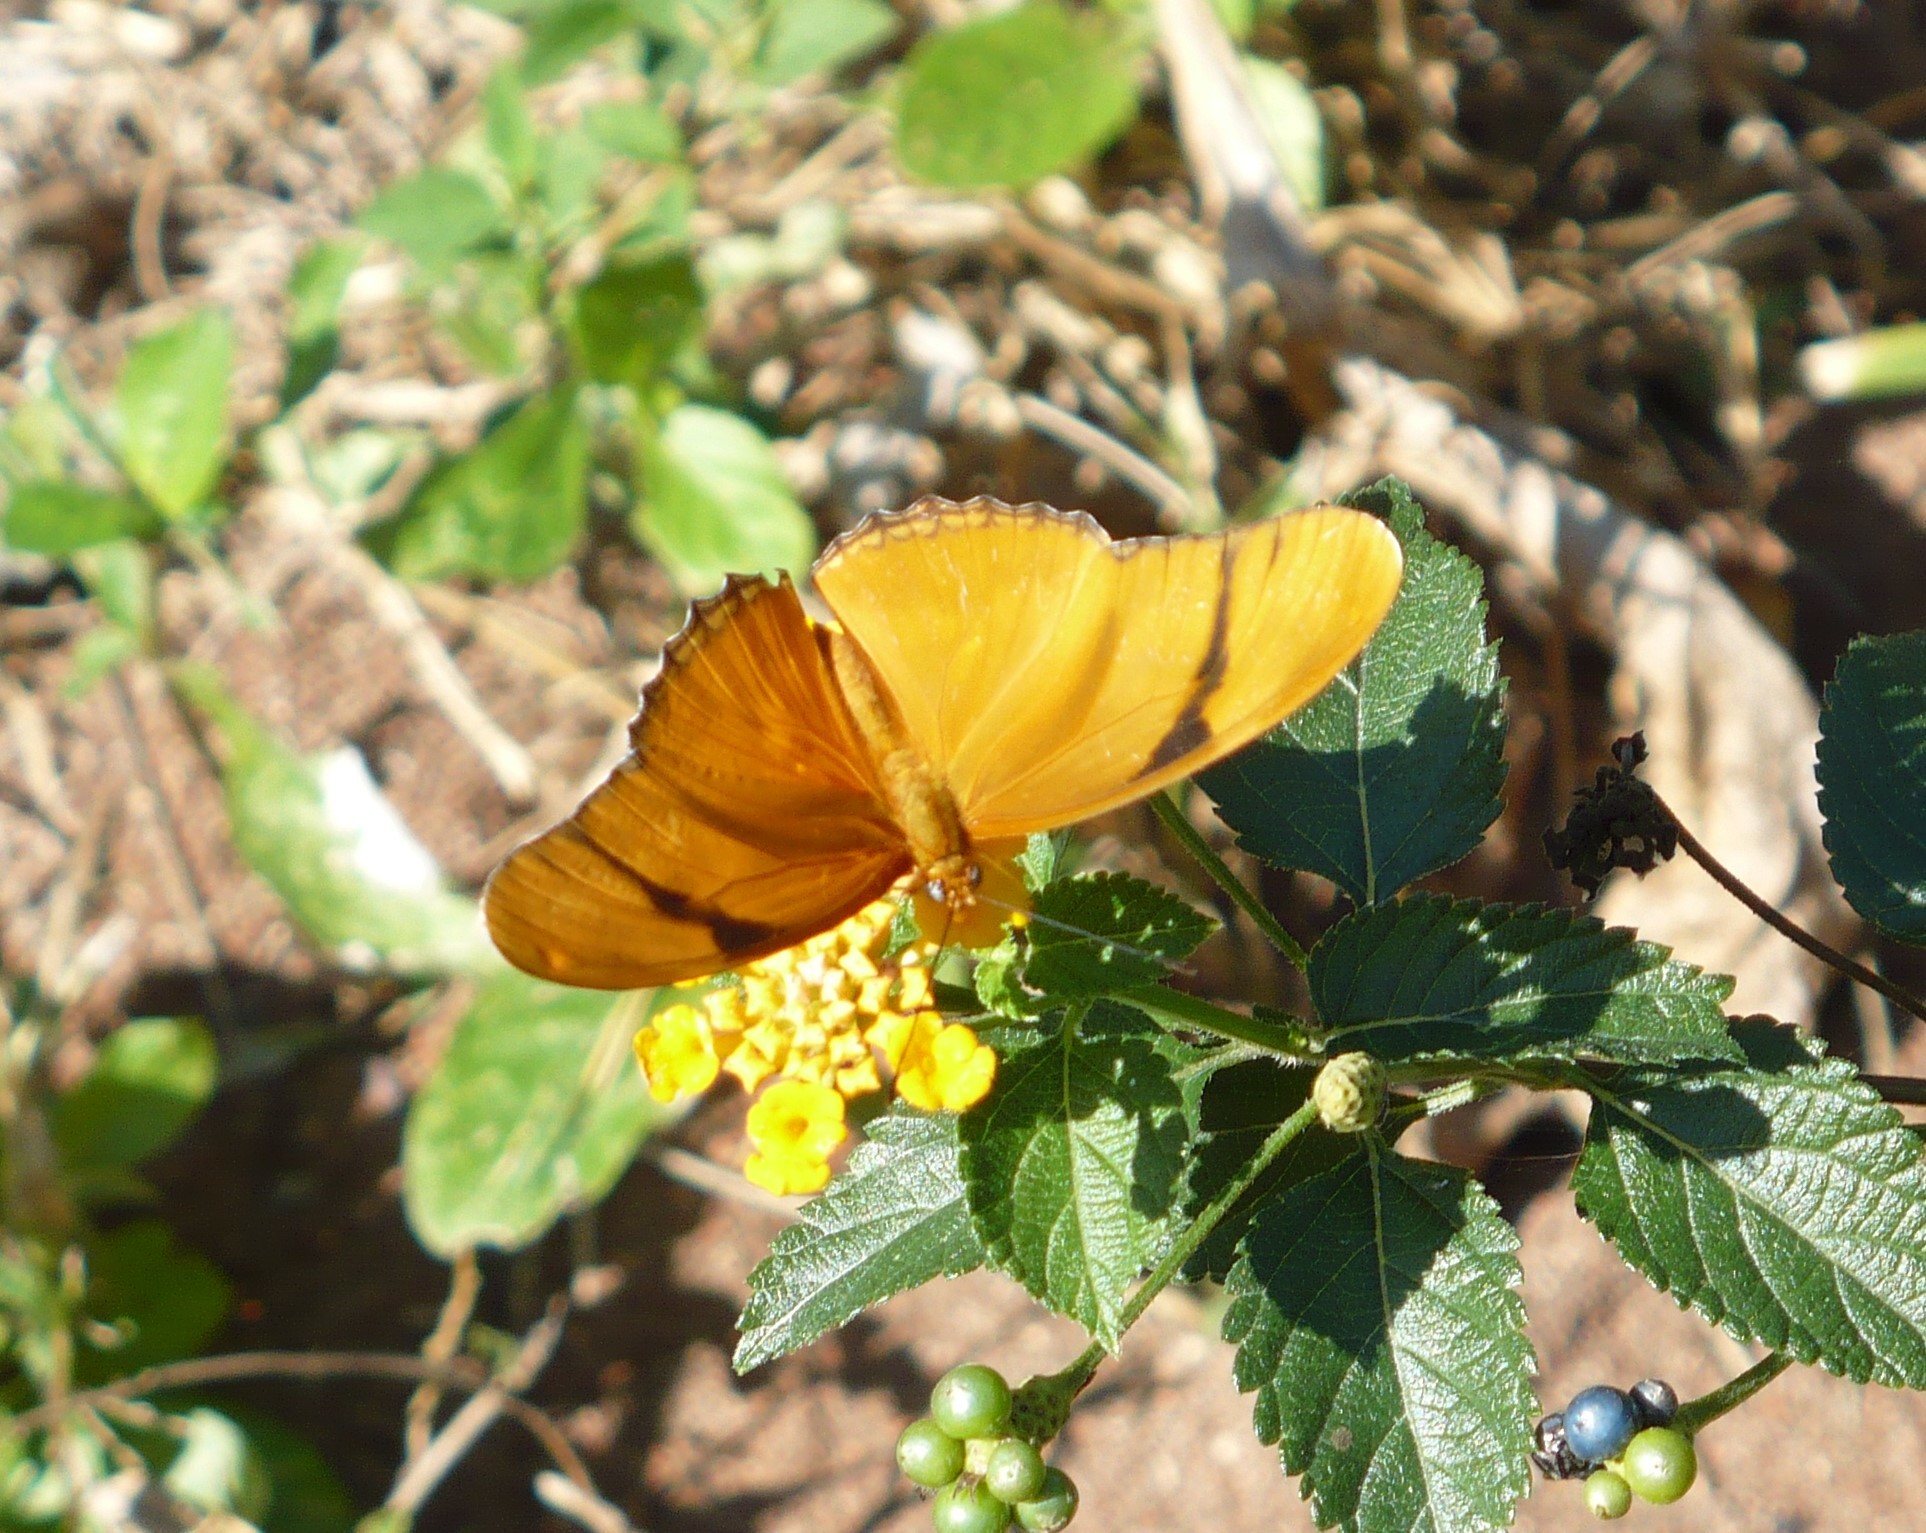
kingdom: Animalia
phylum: Arthropoda
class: Insecta
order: Lepidoptera
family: Nymphalidae
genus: Dryas
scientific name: Dryas iulia
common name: Flambeau
